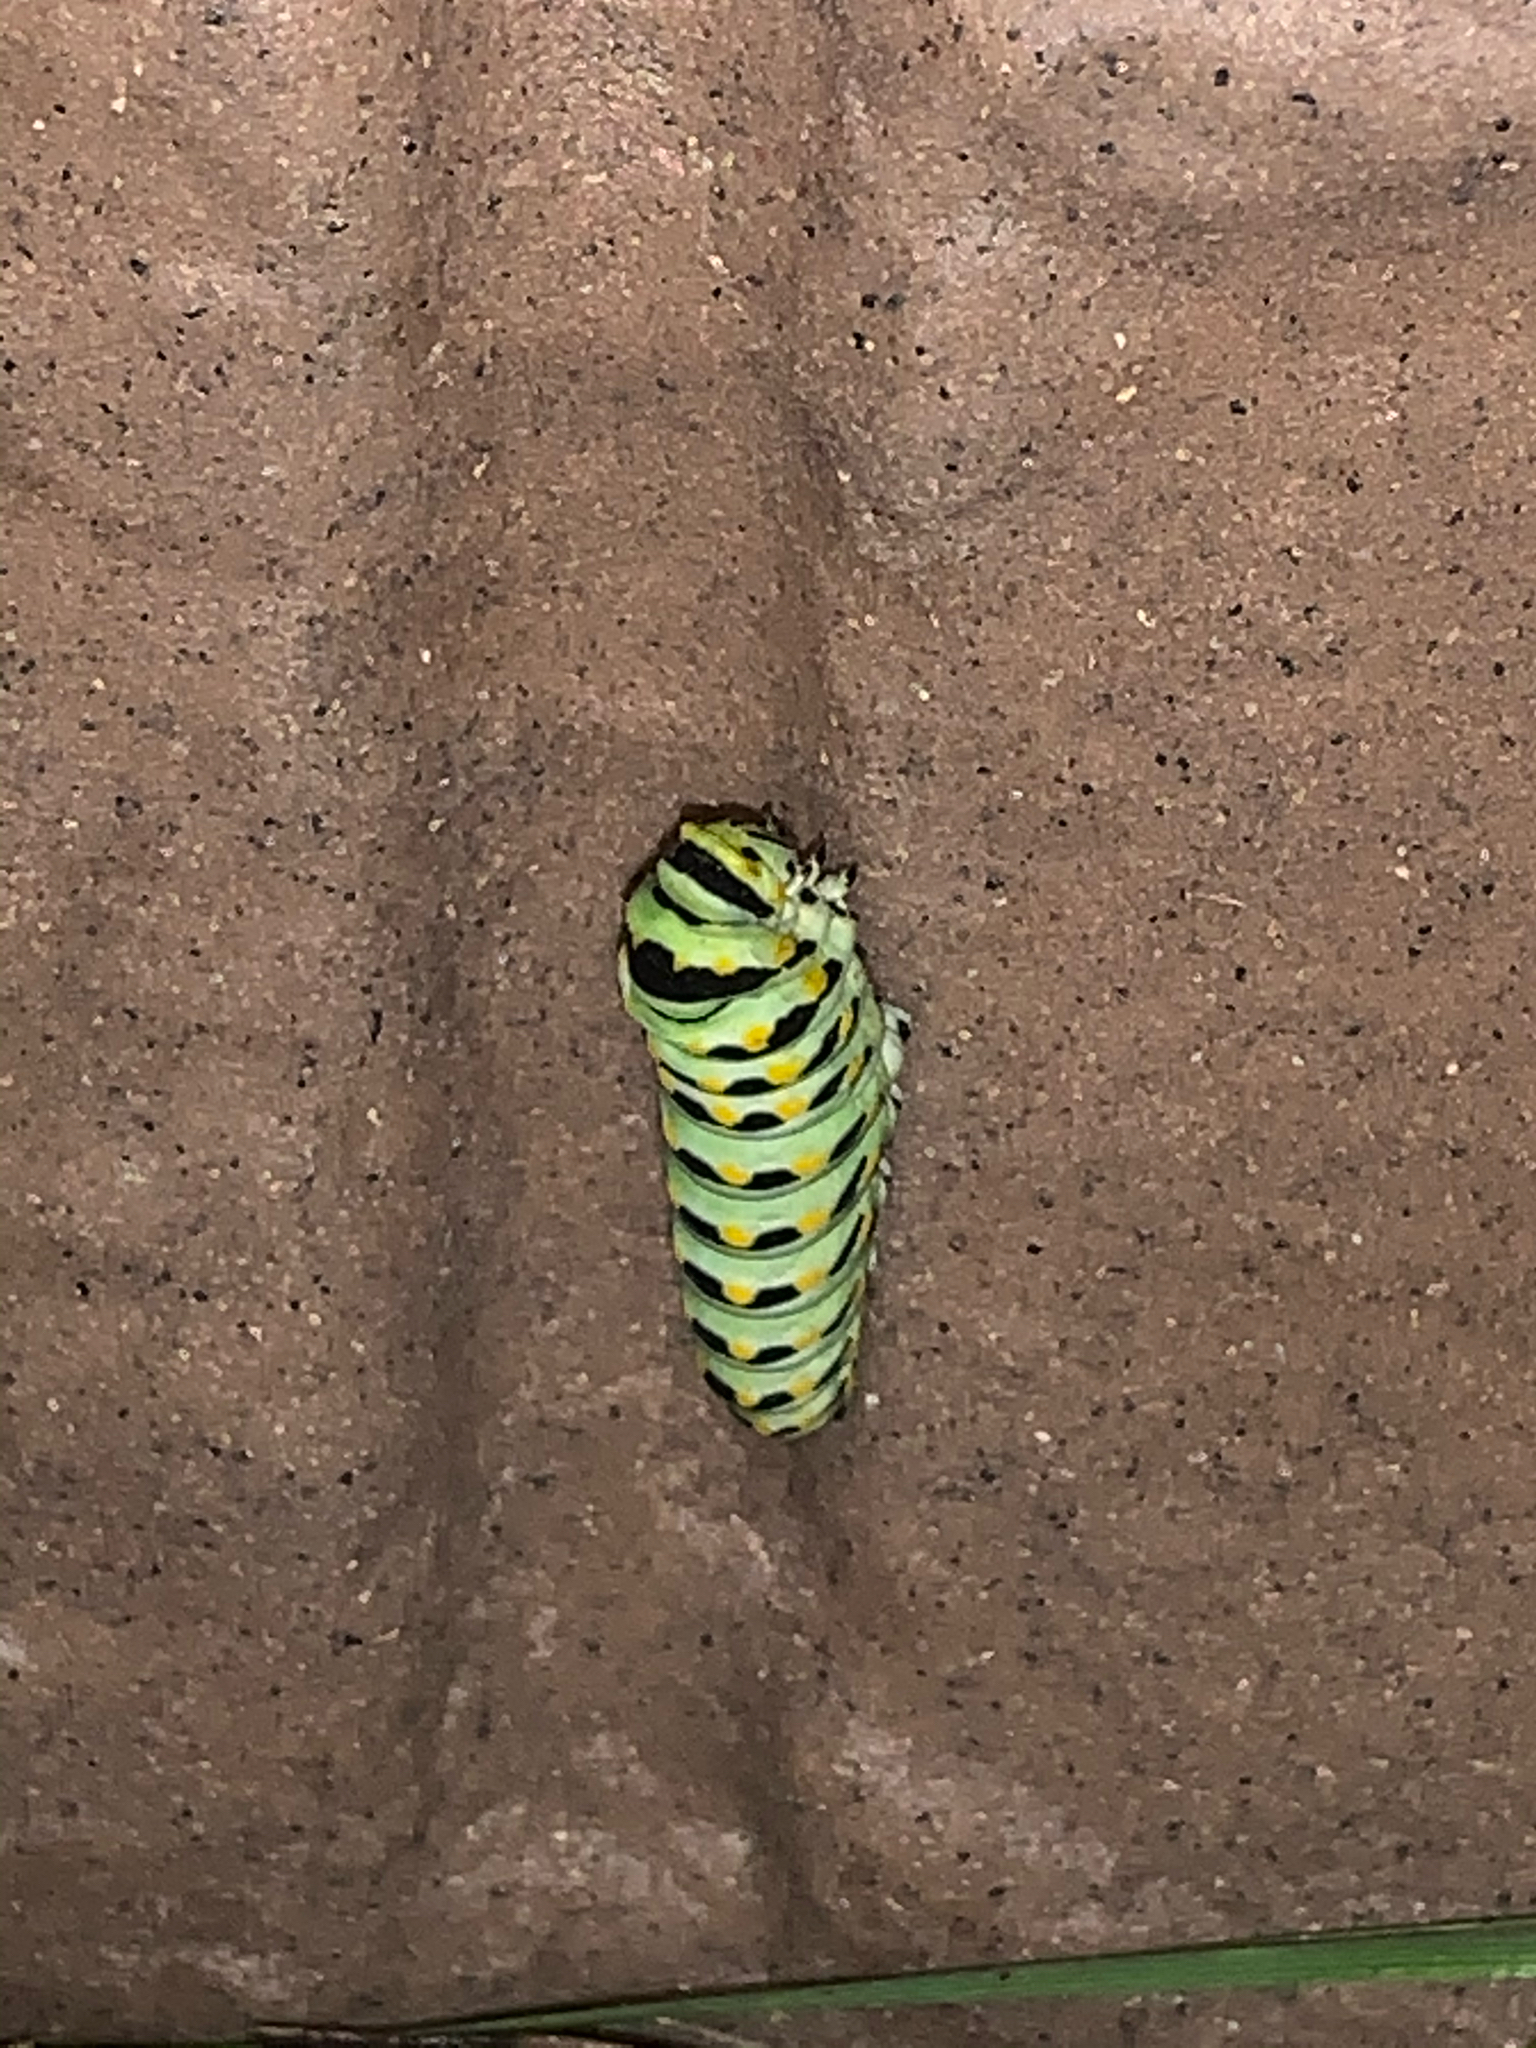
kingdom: Animalia
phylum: Arthropoda
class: Insecta
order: Lepidoptera
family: Papilionidae
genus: Papilio
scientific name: Papilio polyxenes
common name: Black swallowtail
